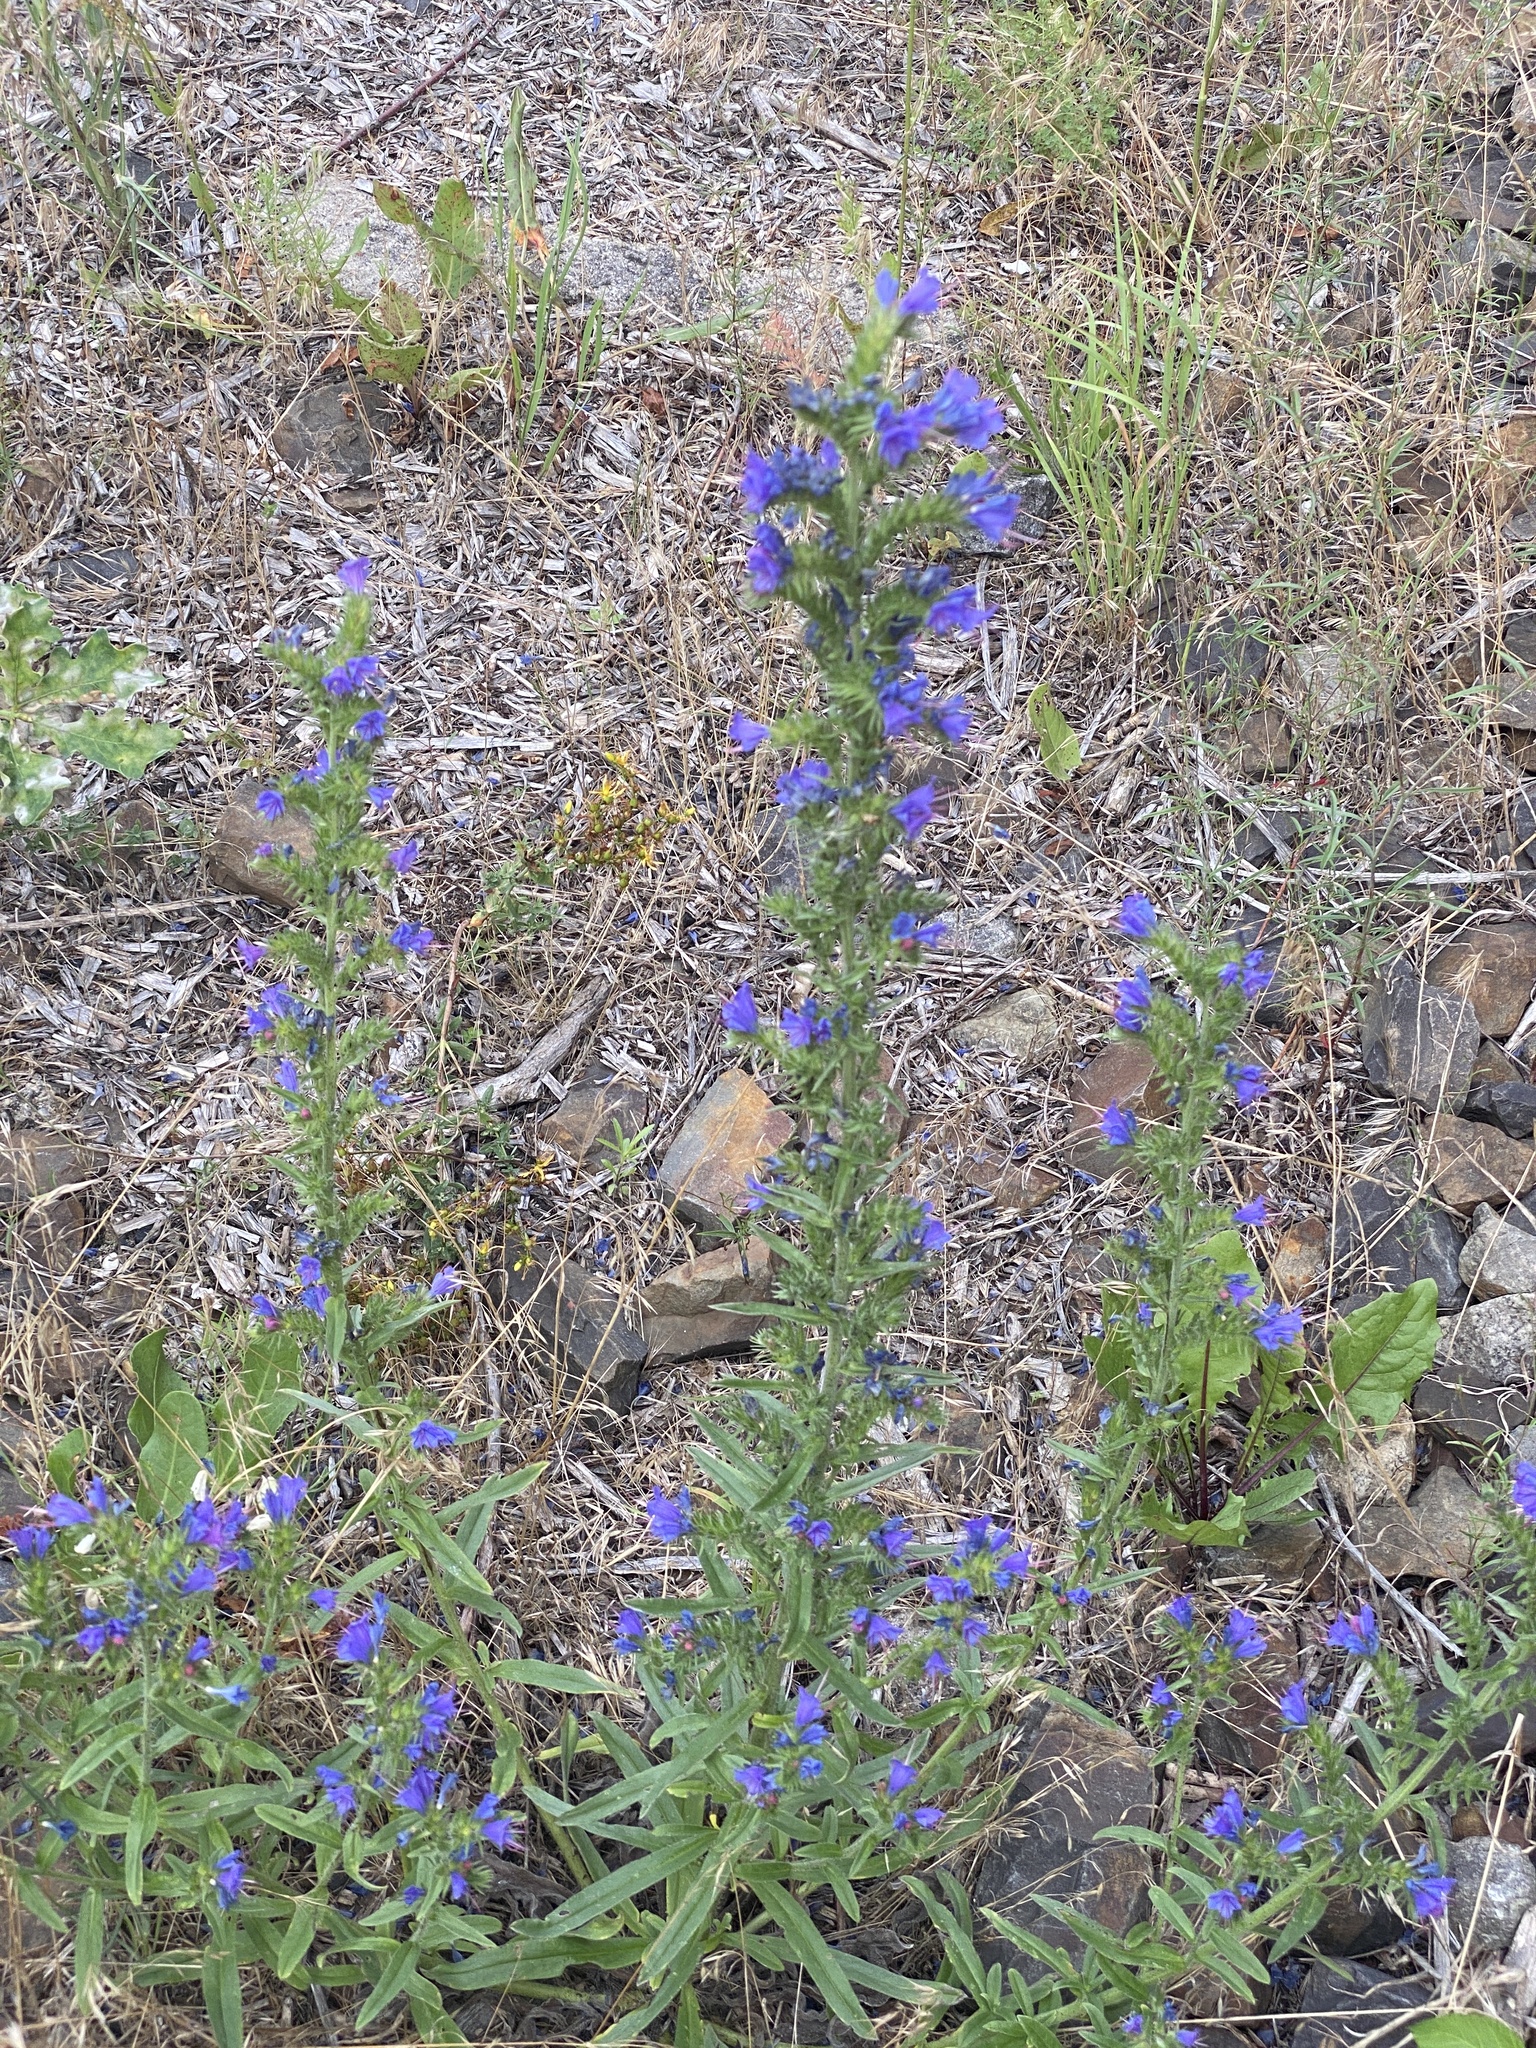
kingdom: Plantae
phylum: Tracheophyta
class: Magnoliopsida
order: Boraginales
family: Boraginaceae
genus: Echium
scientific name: Echium vulgare
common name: Common viper's bugloss
